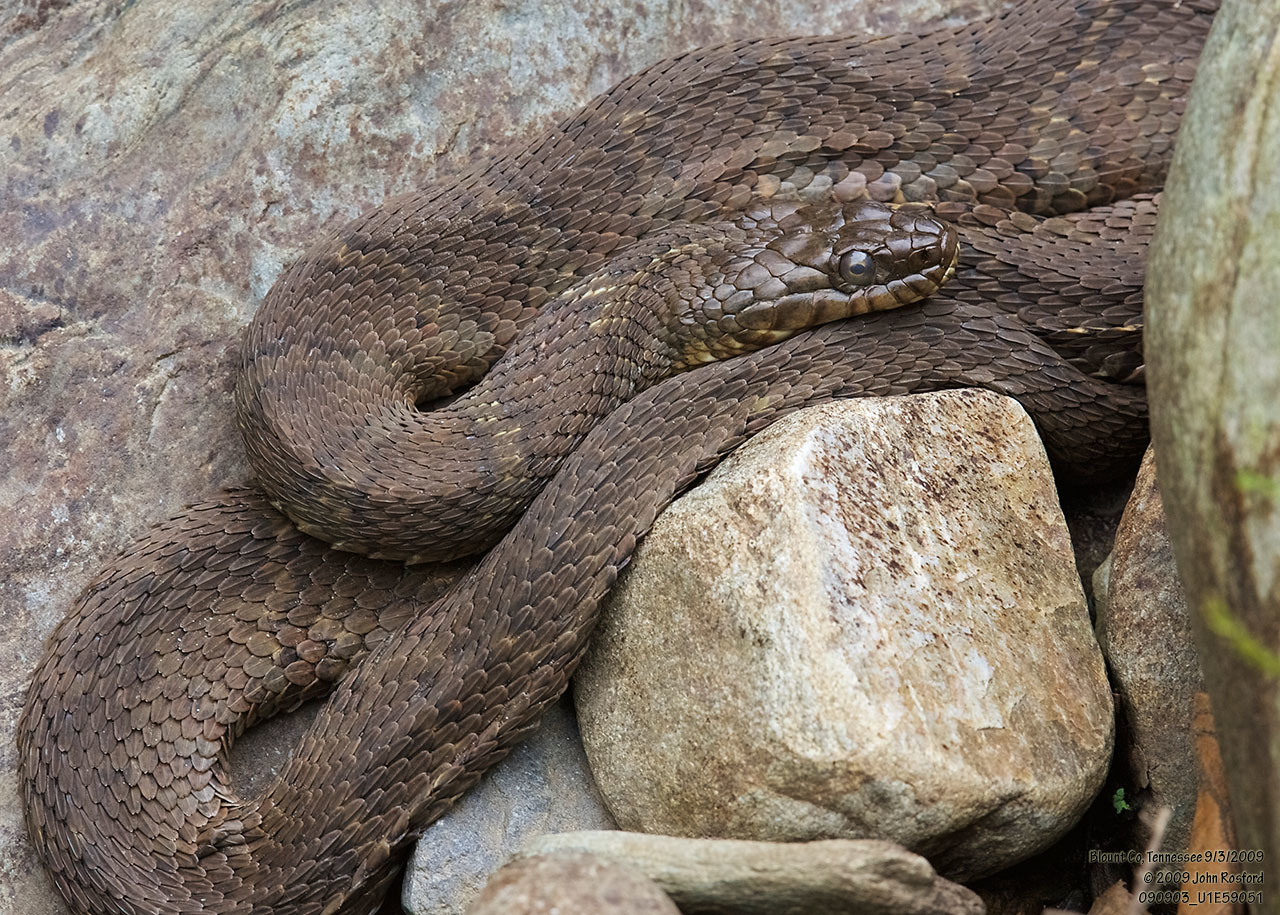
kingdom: Animalia
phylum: Chordata
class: Squamata
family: Colubridae
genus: Nerodia
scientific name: Nerodia sipedon
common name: Northern water snake
